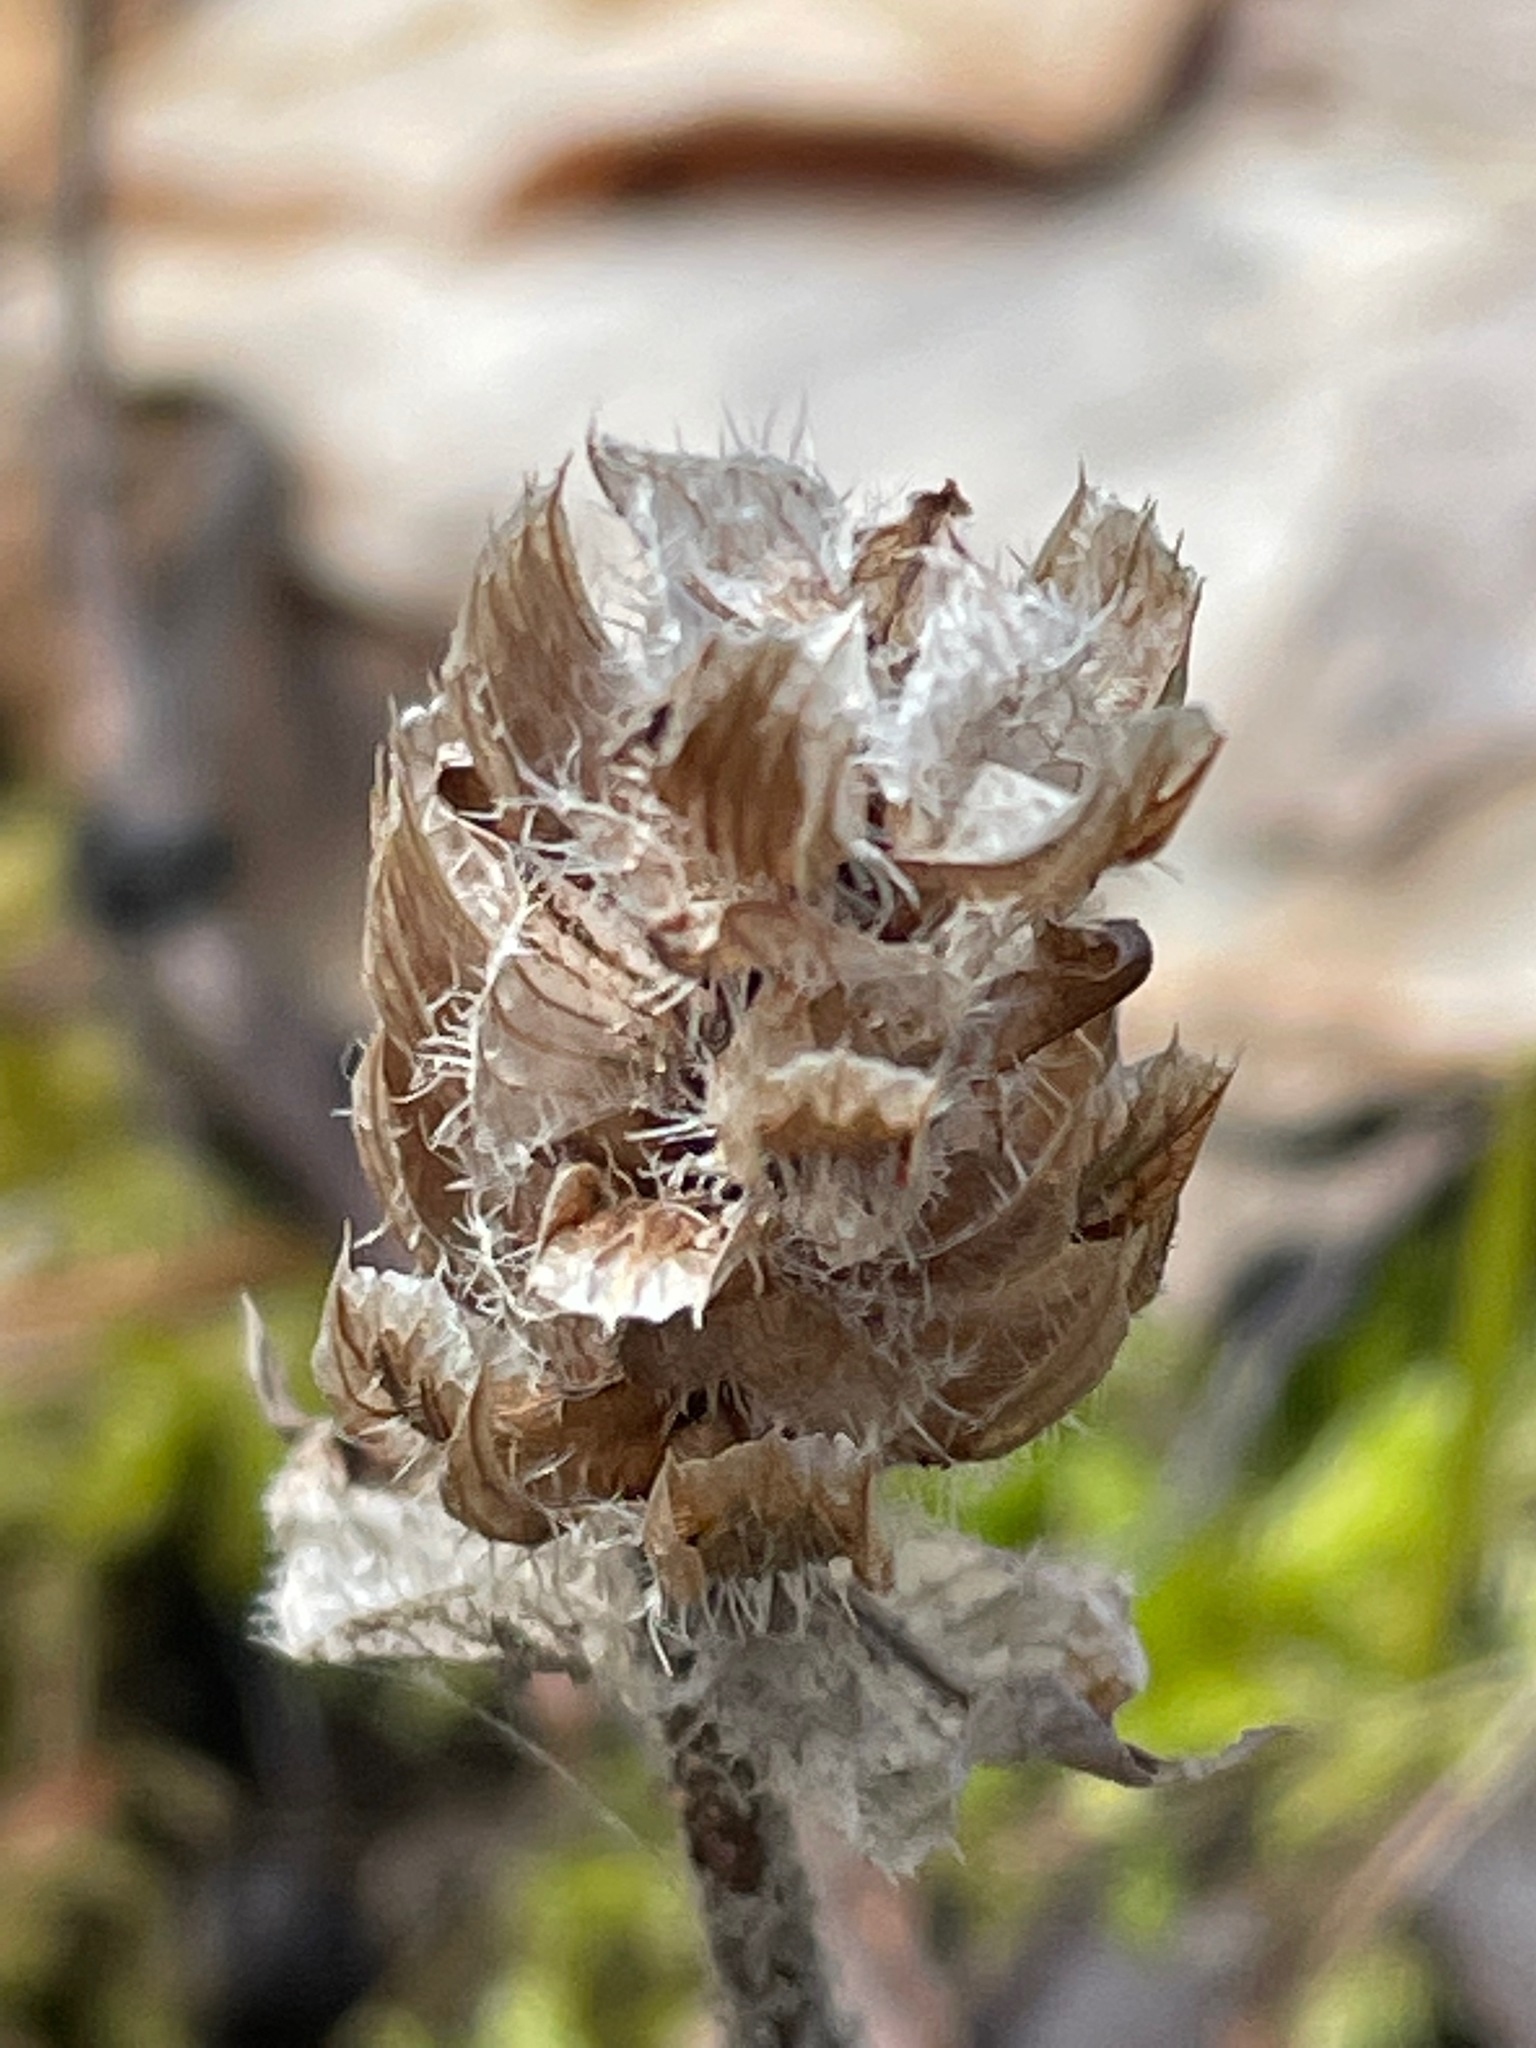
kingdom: Plantae
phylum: Tracheophyta
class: Magnoliopsida
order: Lamiales
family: Lamiaceae
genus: Prunella
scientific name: Prunella vulgaris
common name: Heal-all
